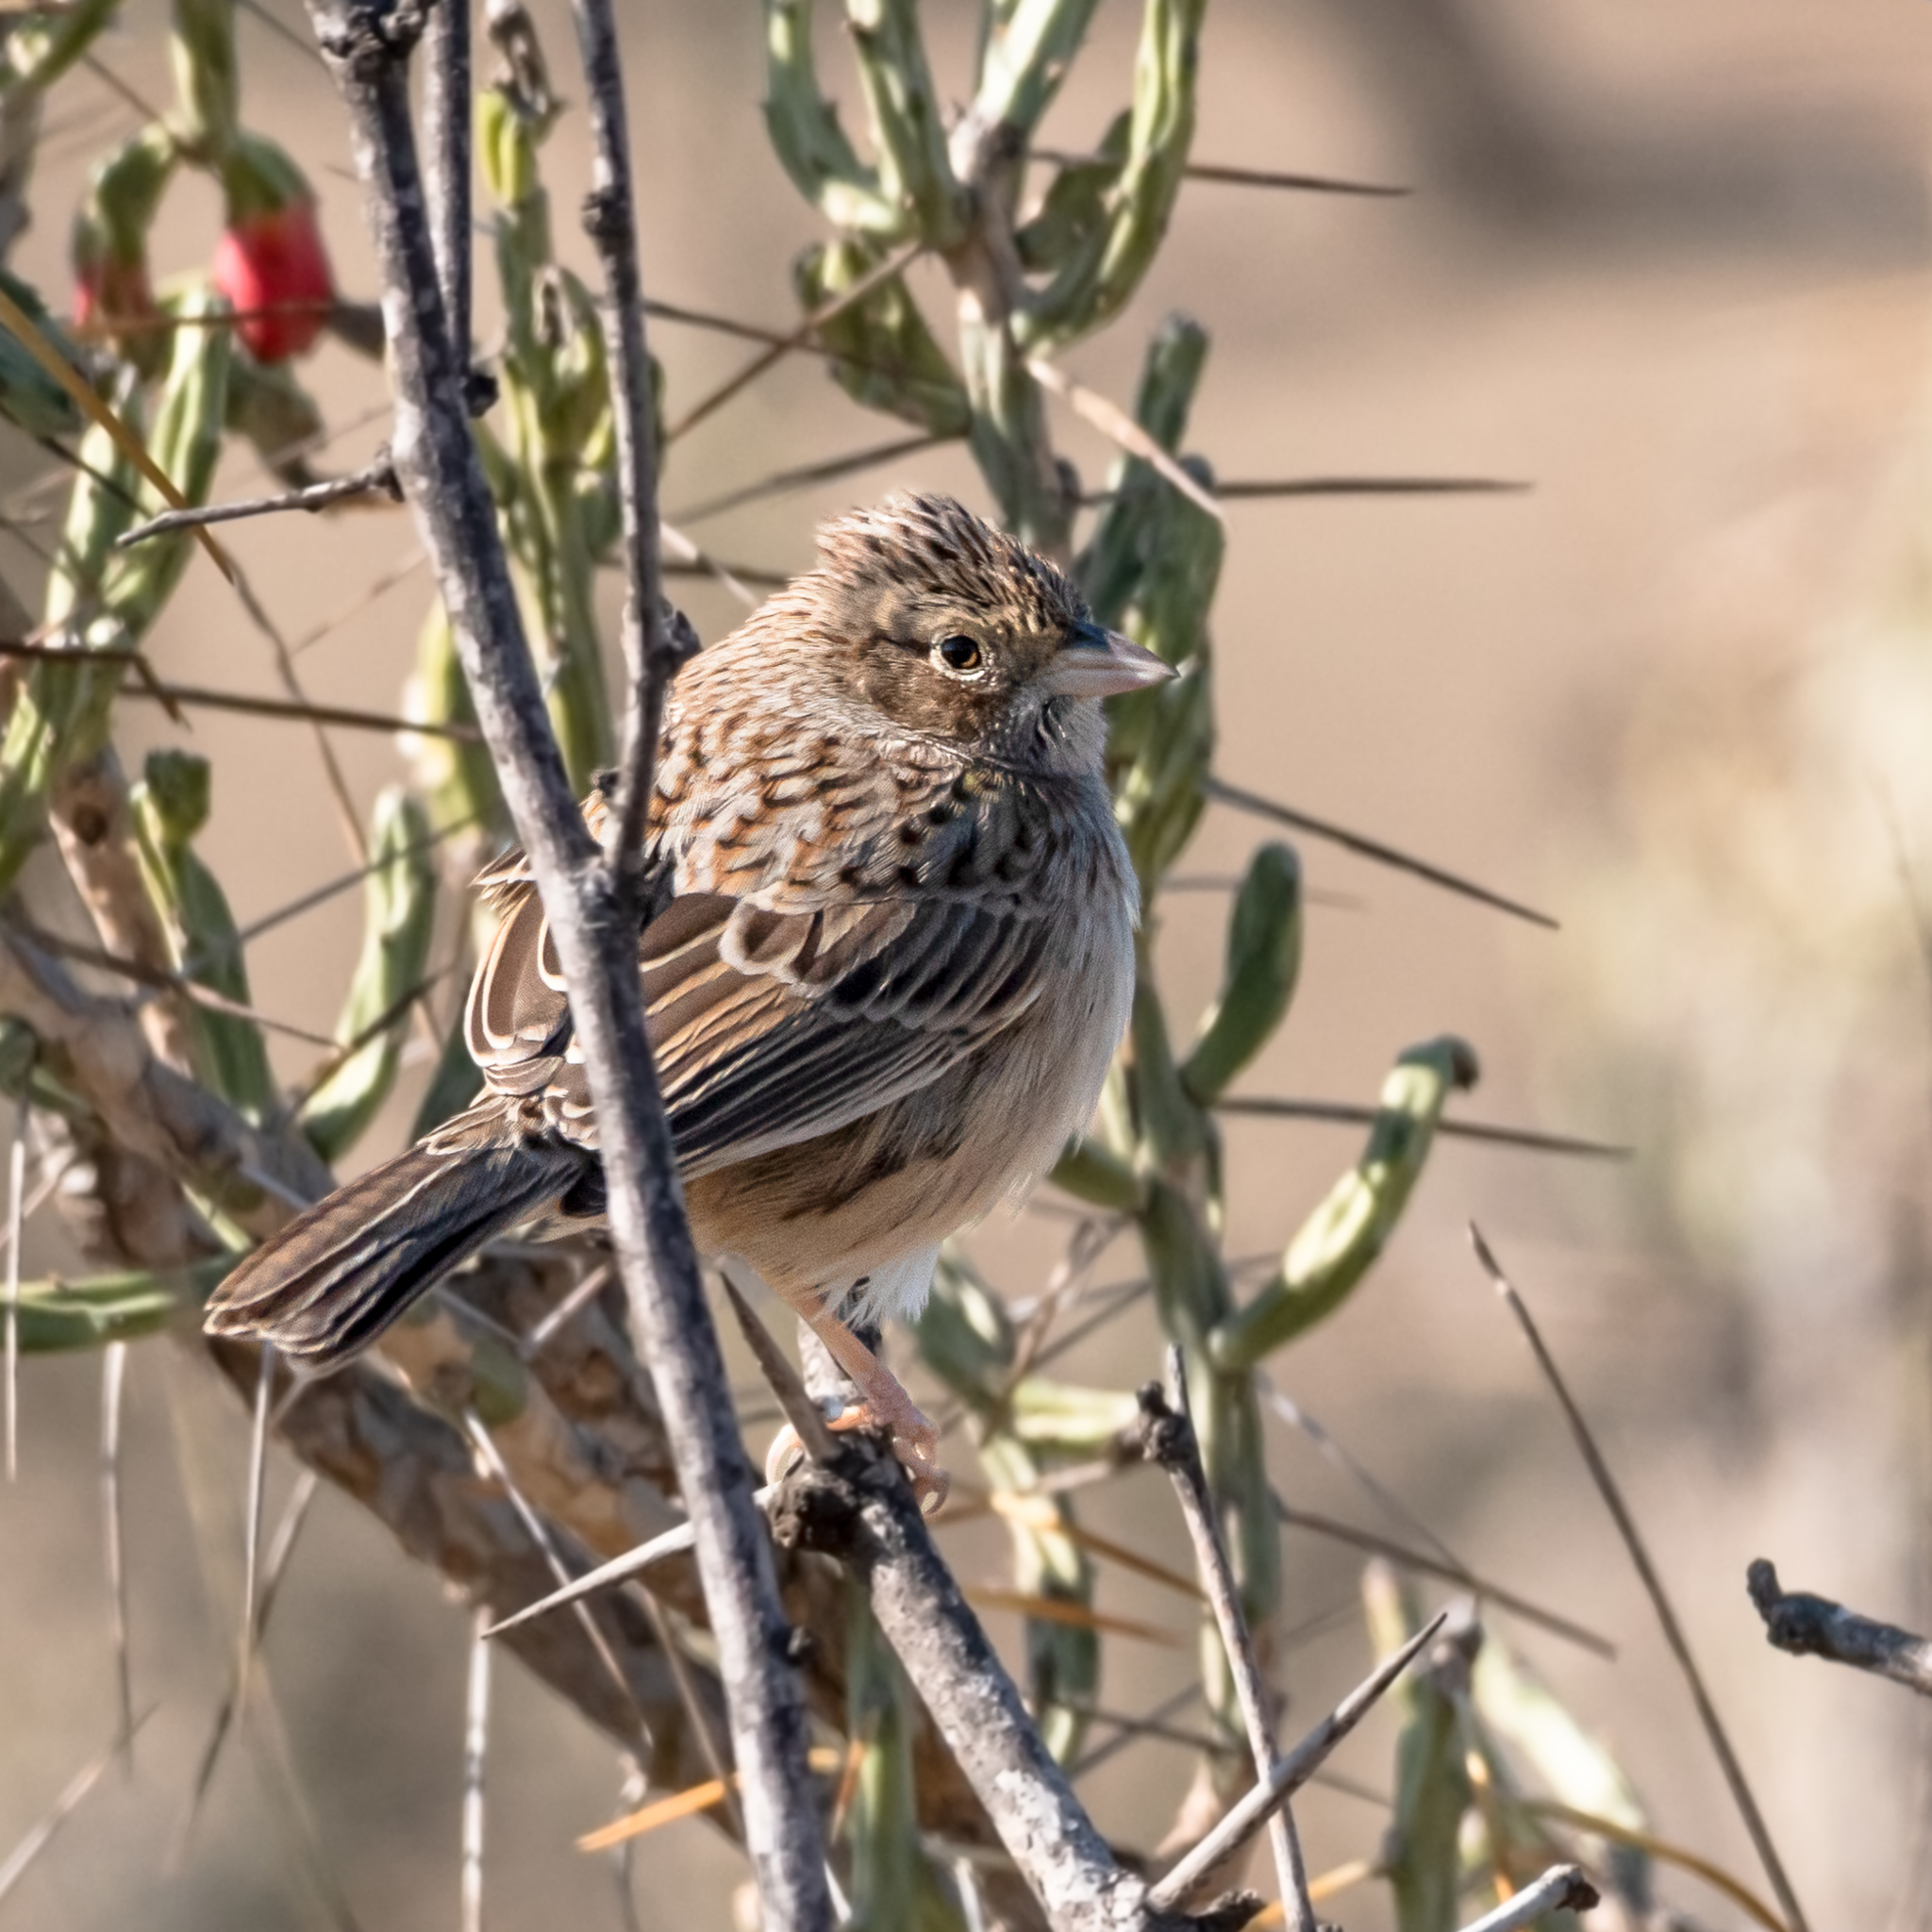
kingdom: Animalia
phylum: Chordata
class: Aves
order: Passeriformes
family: Passerellidae
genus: Peucaea
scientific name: Peucaea cassinii
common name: Cassin's sparrow
